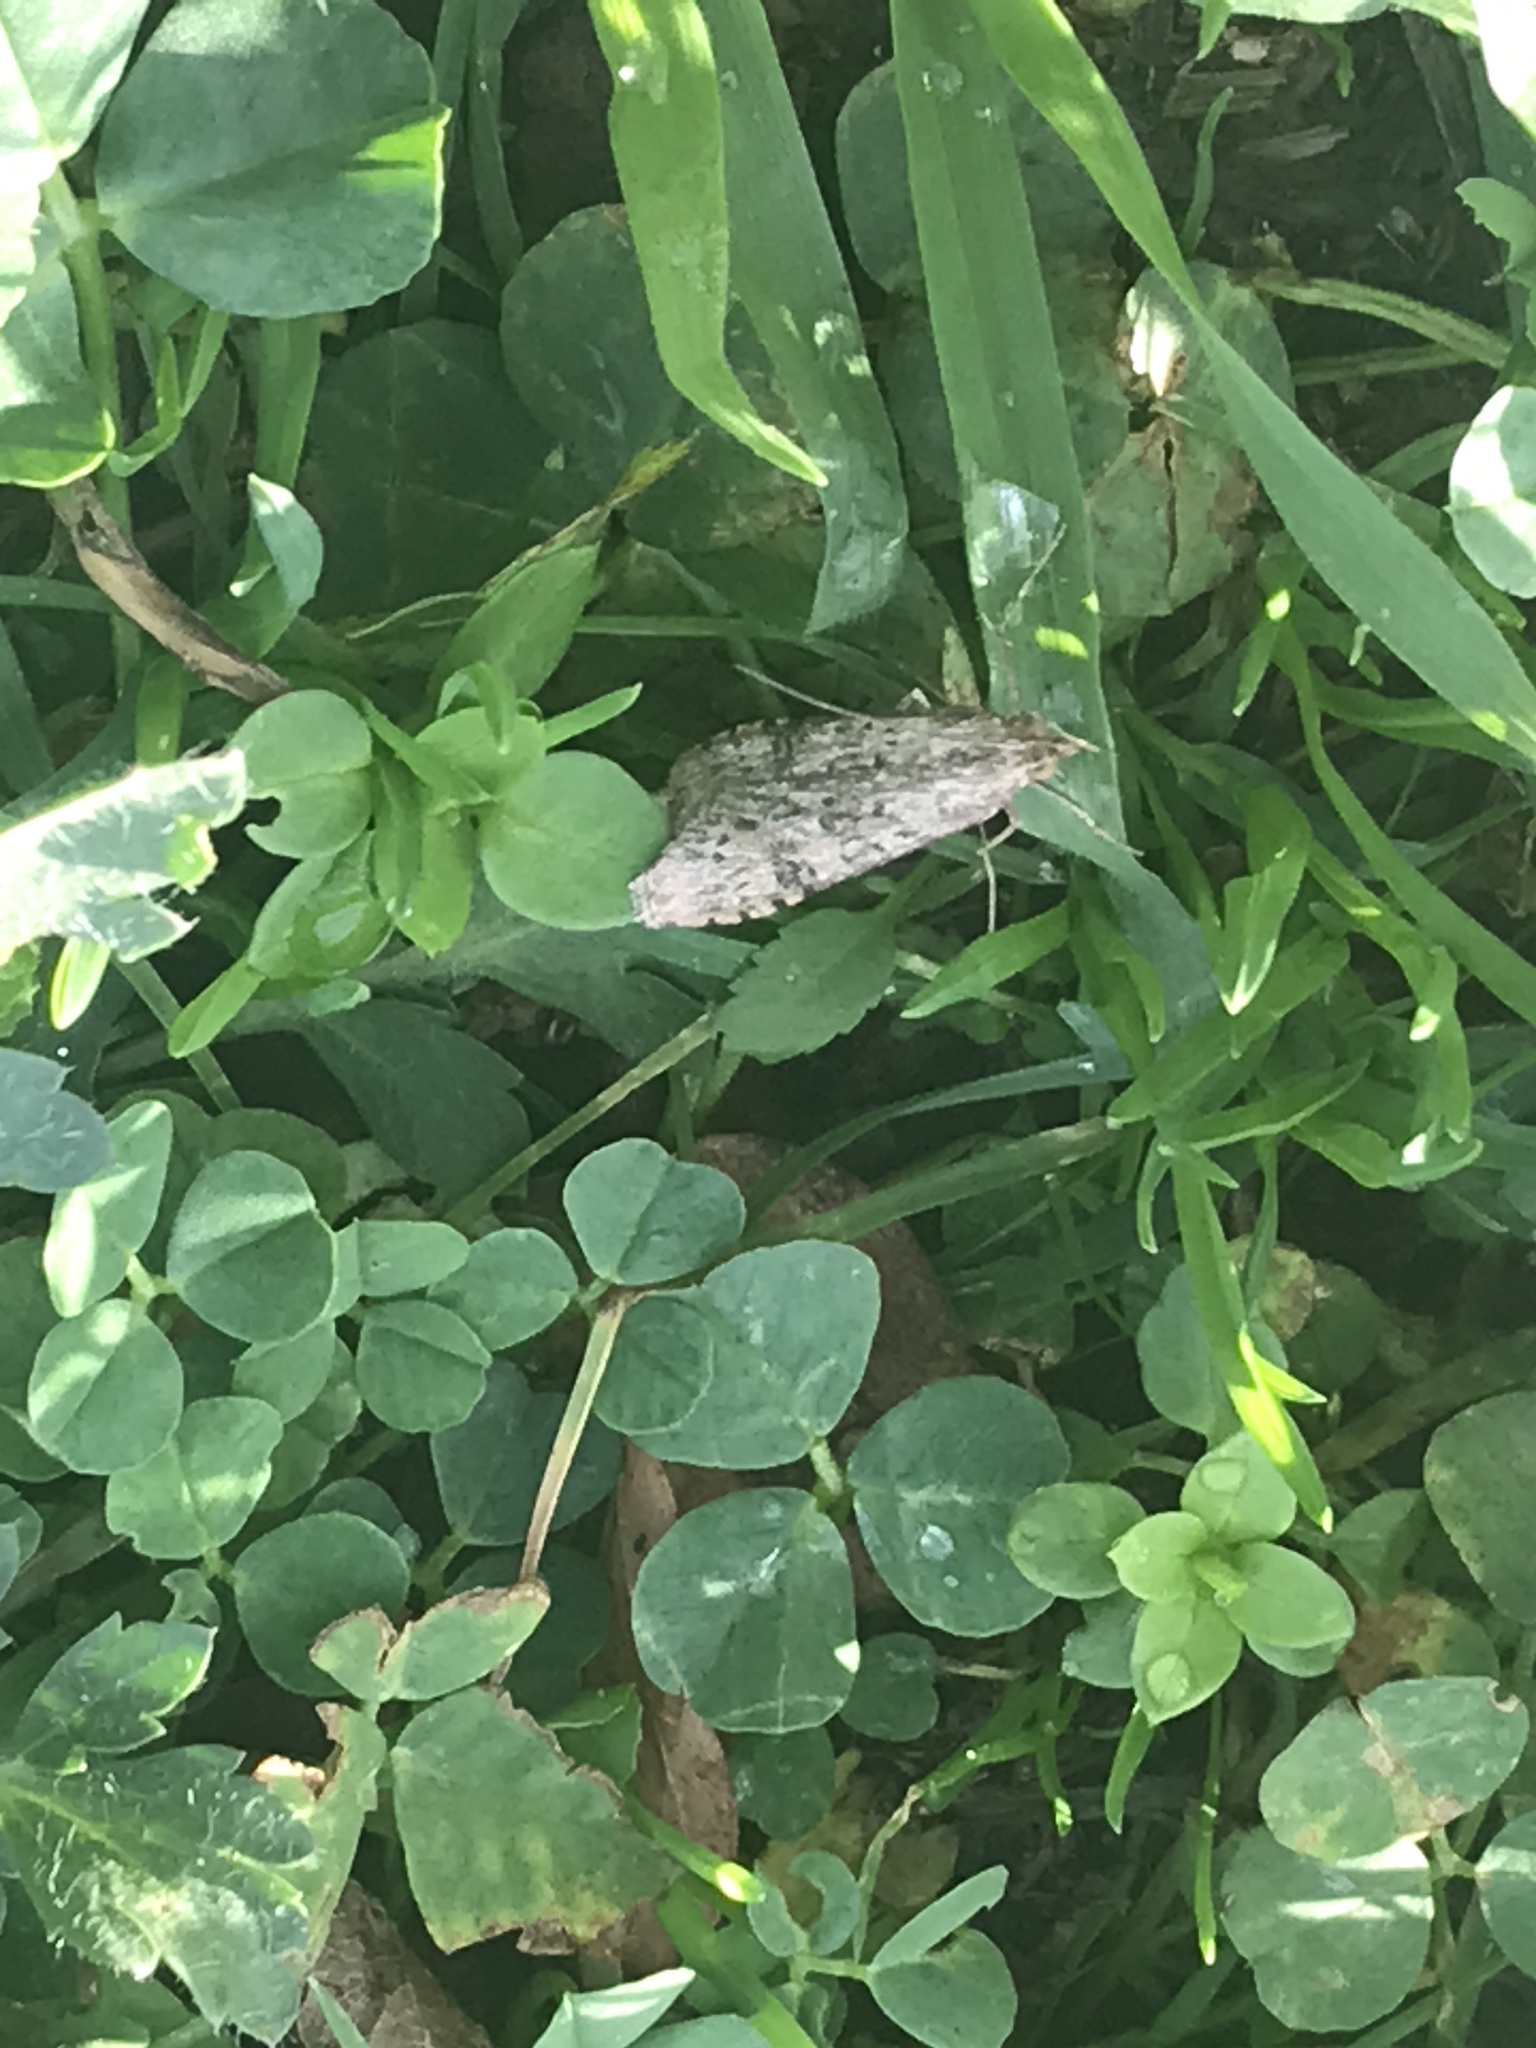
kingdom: Animalia
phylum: Arthropoda
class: Insecta
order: Lepidoptera
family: Crambidae
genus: Nomophila
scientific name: Nomophila nearctica
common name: American rush veneer
